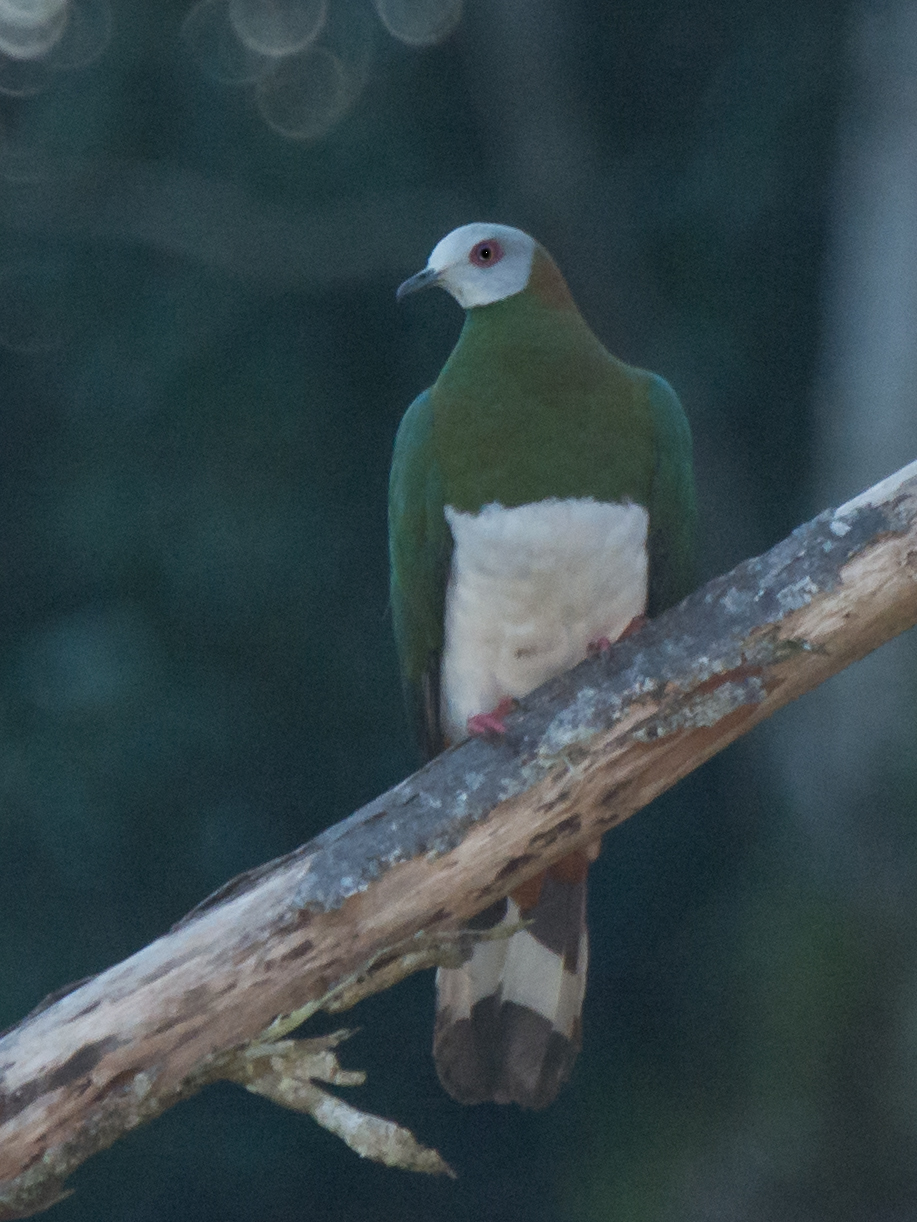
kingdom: Animalia
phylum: Chordata
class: Aves
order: Columbiformes
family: Columbidae
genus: Ducula
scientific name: Ducula forsteni
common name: White-bellied imperial pigeon
